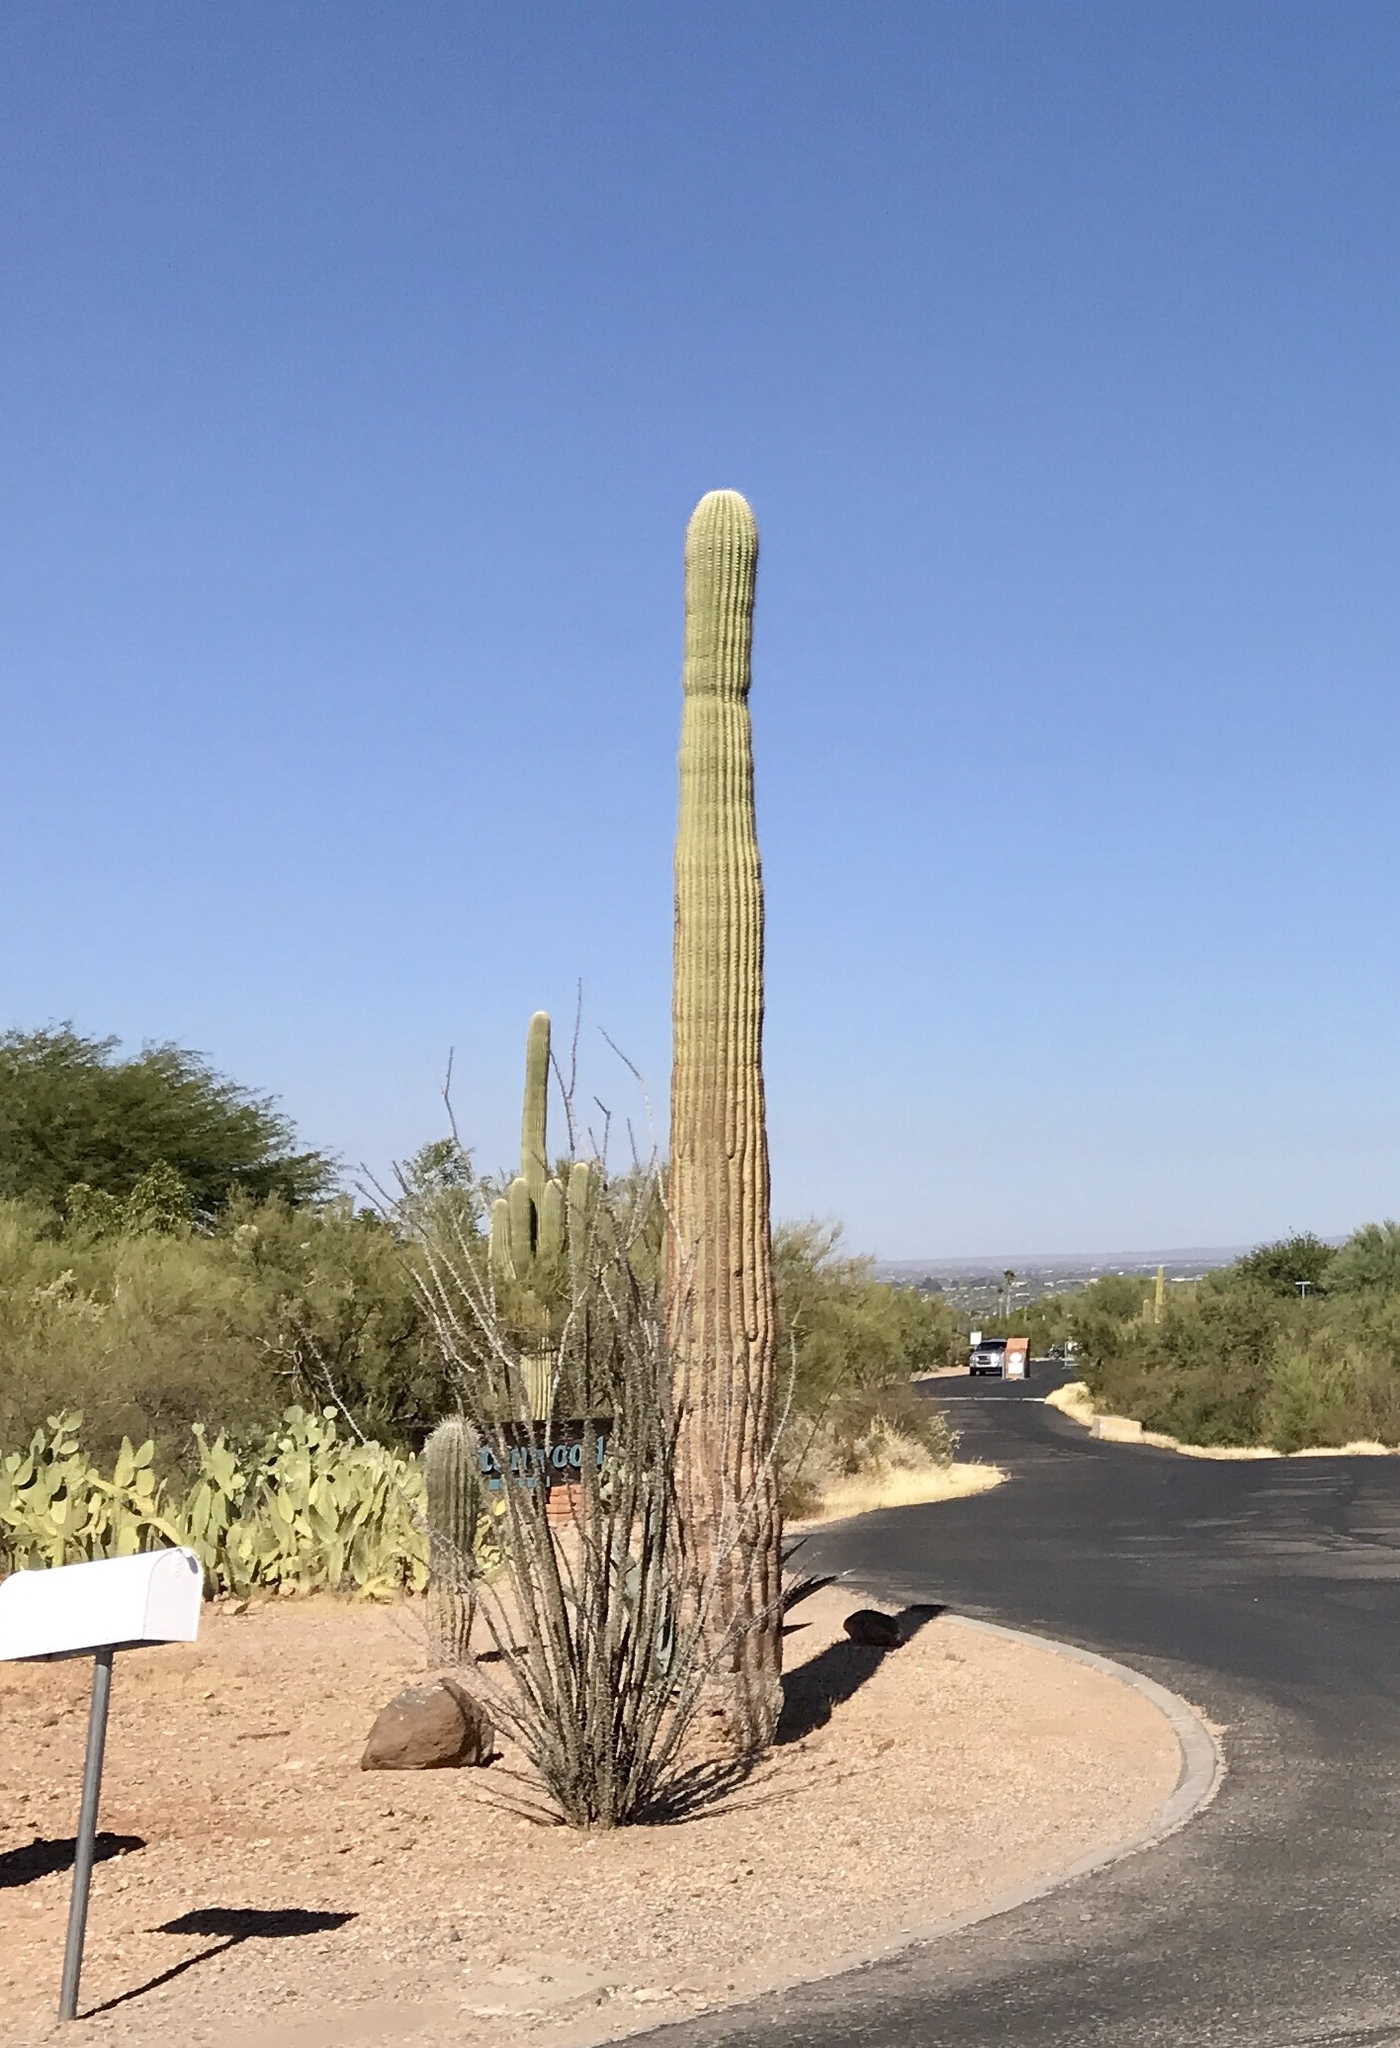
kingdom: Plantae
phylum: Tracheophyta
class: Magnoliopsida
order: Caryophyllales
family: Cactaceae
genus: Carnegiea
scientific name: Carnegiea gigantea
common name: Saguaro
